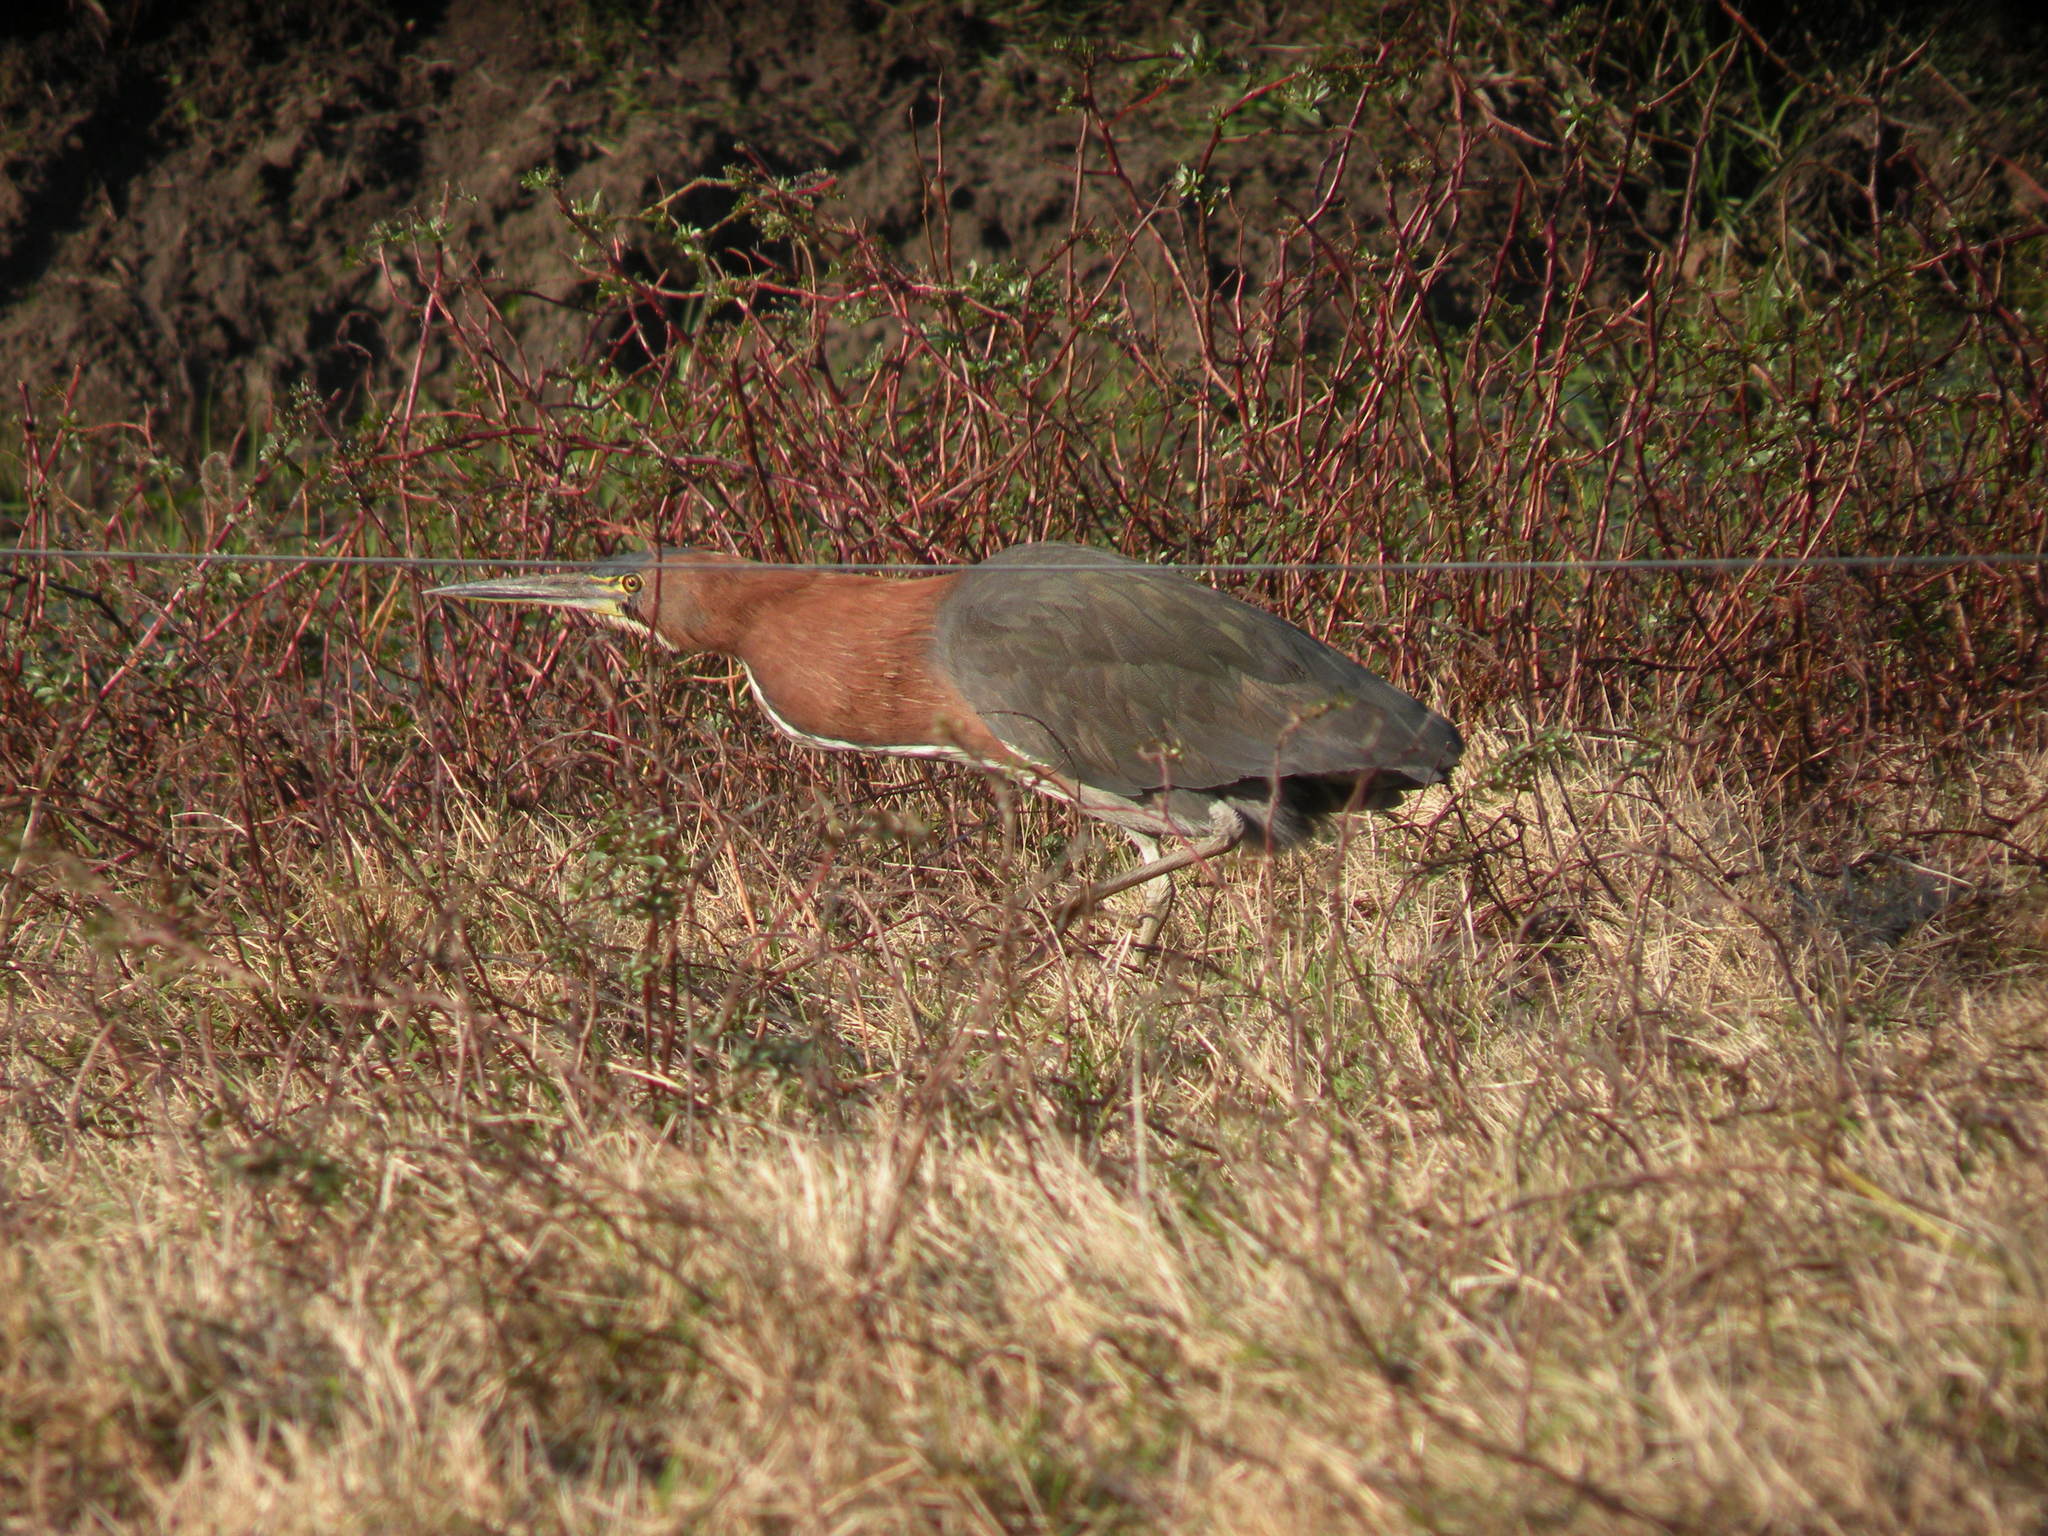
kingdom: Animalia
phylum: Chordata
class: Aves
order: Pelecaniformes
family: Ardeidae
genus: Tigrisoma
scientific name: Tigrisoma lineatum
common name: Rufescent tiger-heron
